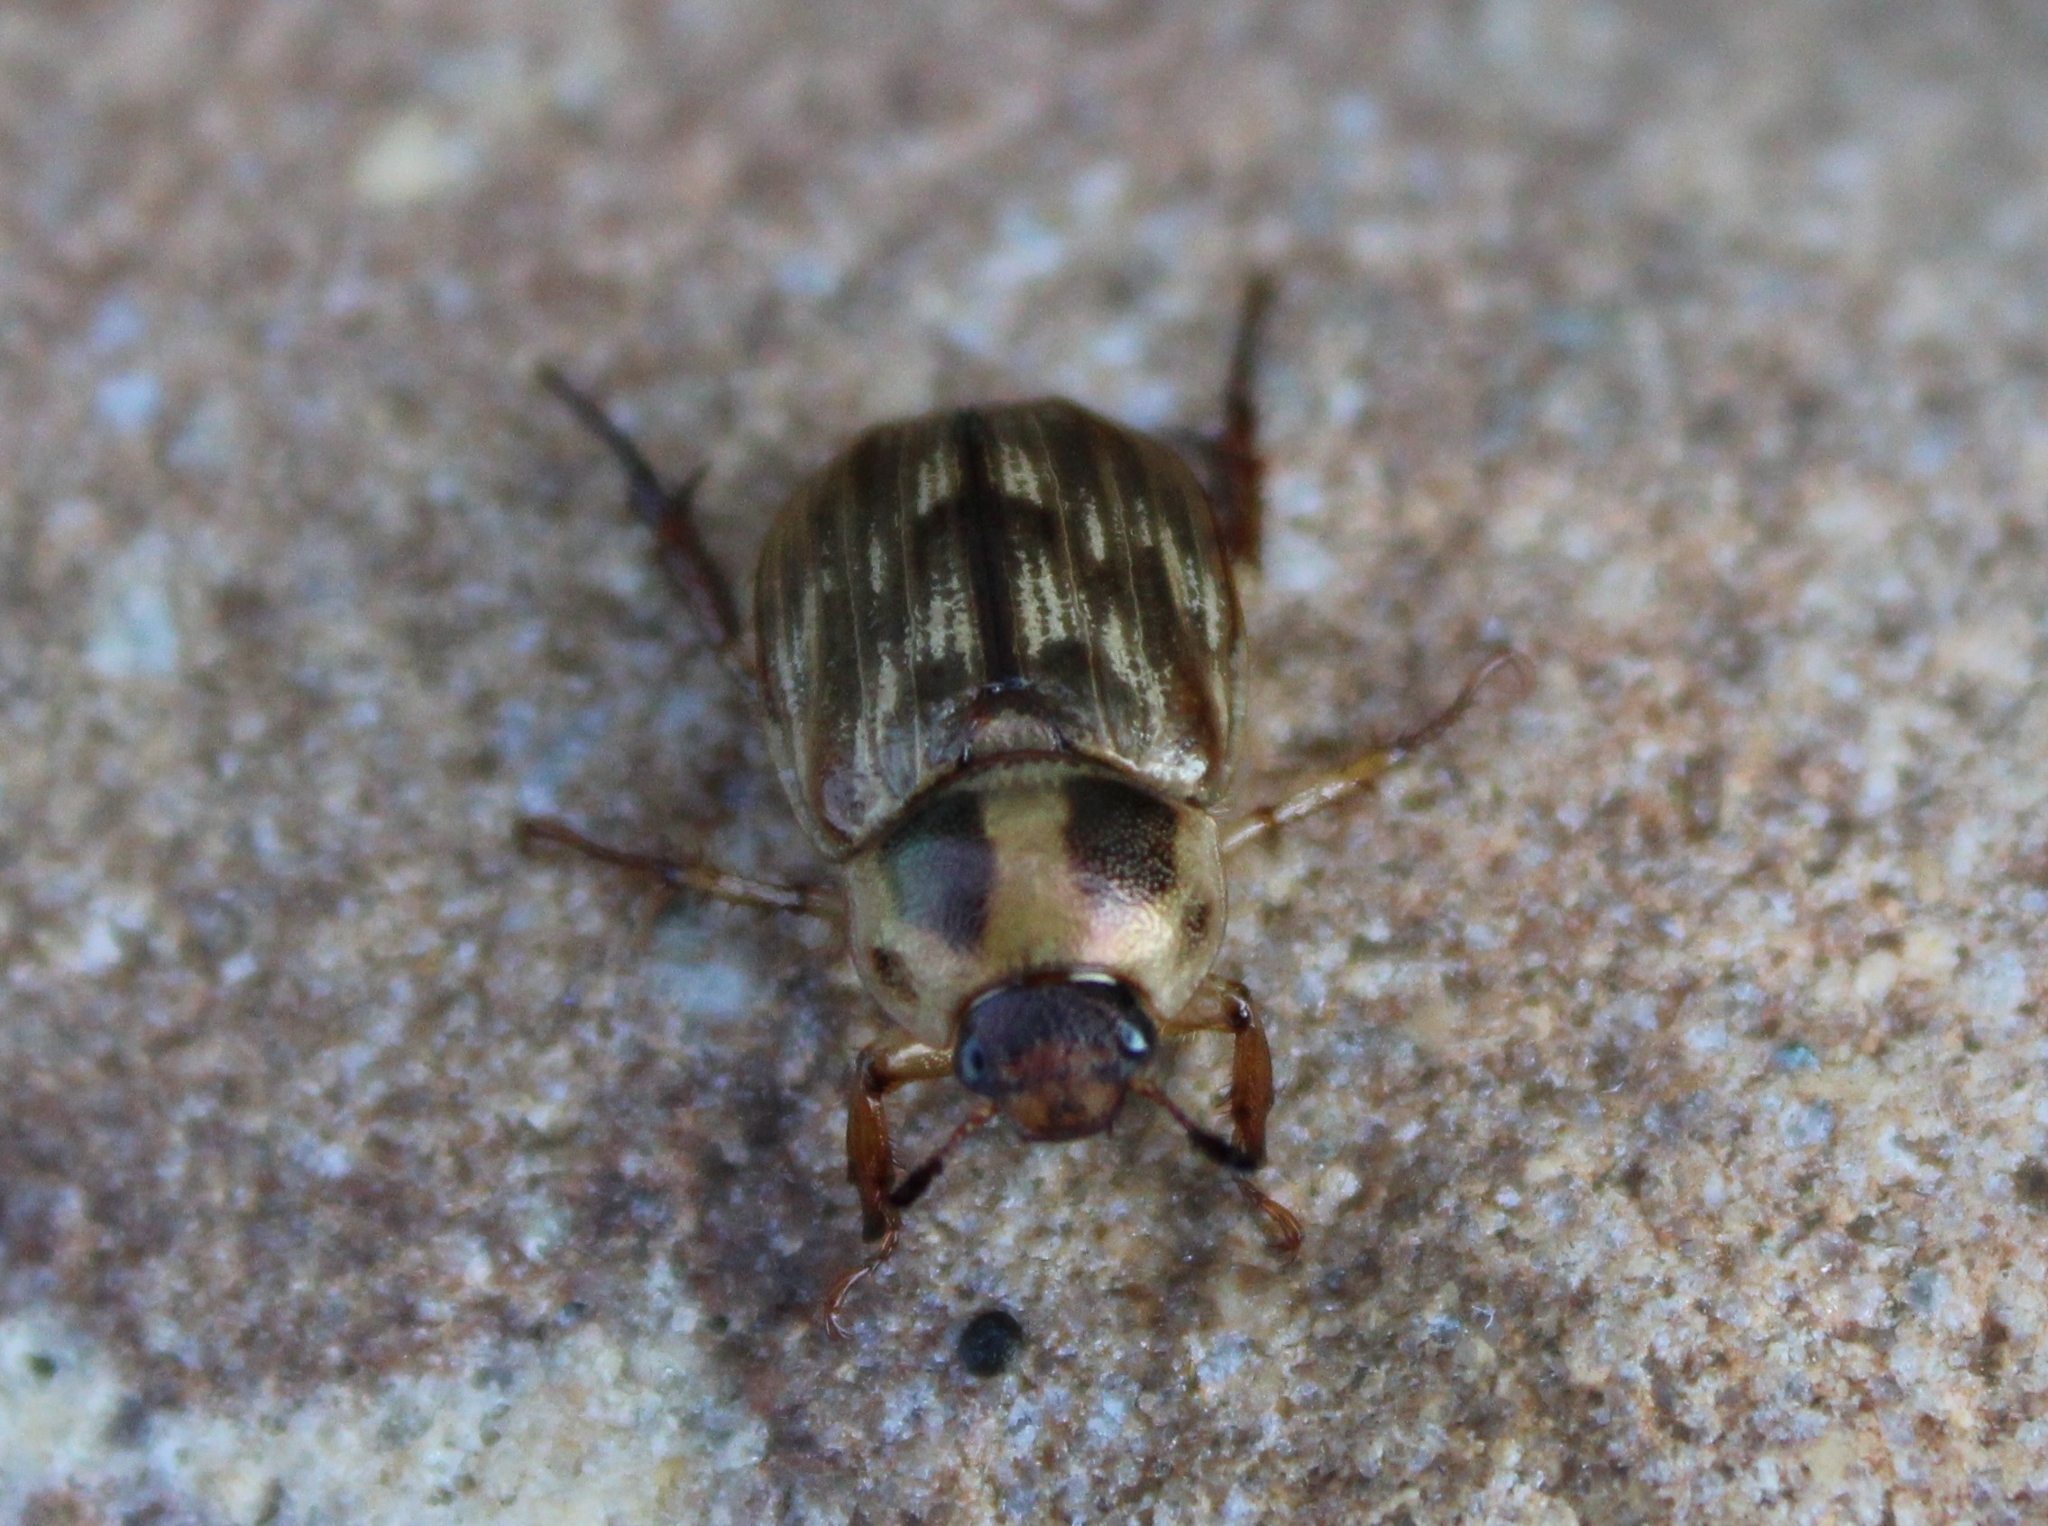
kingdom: Animalia
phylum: Arthropoda
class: Insecta
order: Coleoptera
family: Scarabaeidae
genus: Exomala
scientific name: Exomala orientalis
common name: Oriental beetle
